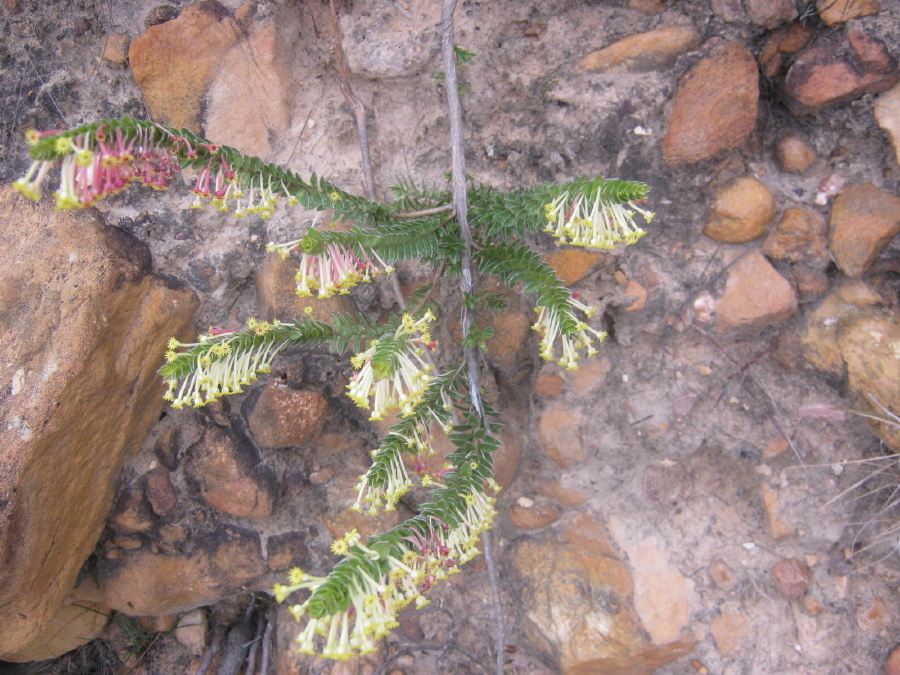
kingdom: Plantae
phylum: Tracheophyta
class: Magnoliopsida
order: Malvales
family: Thymelaeaceae
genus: Struthiola
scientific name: Struthiola argentea
